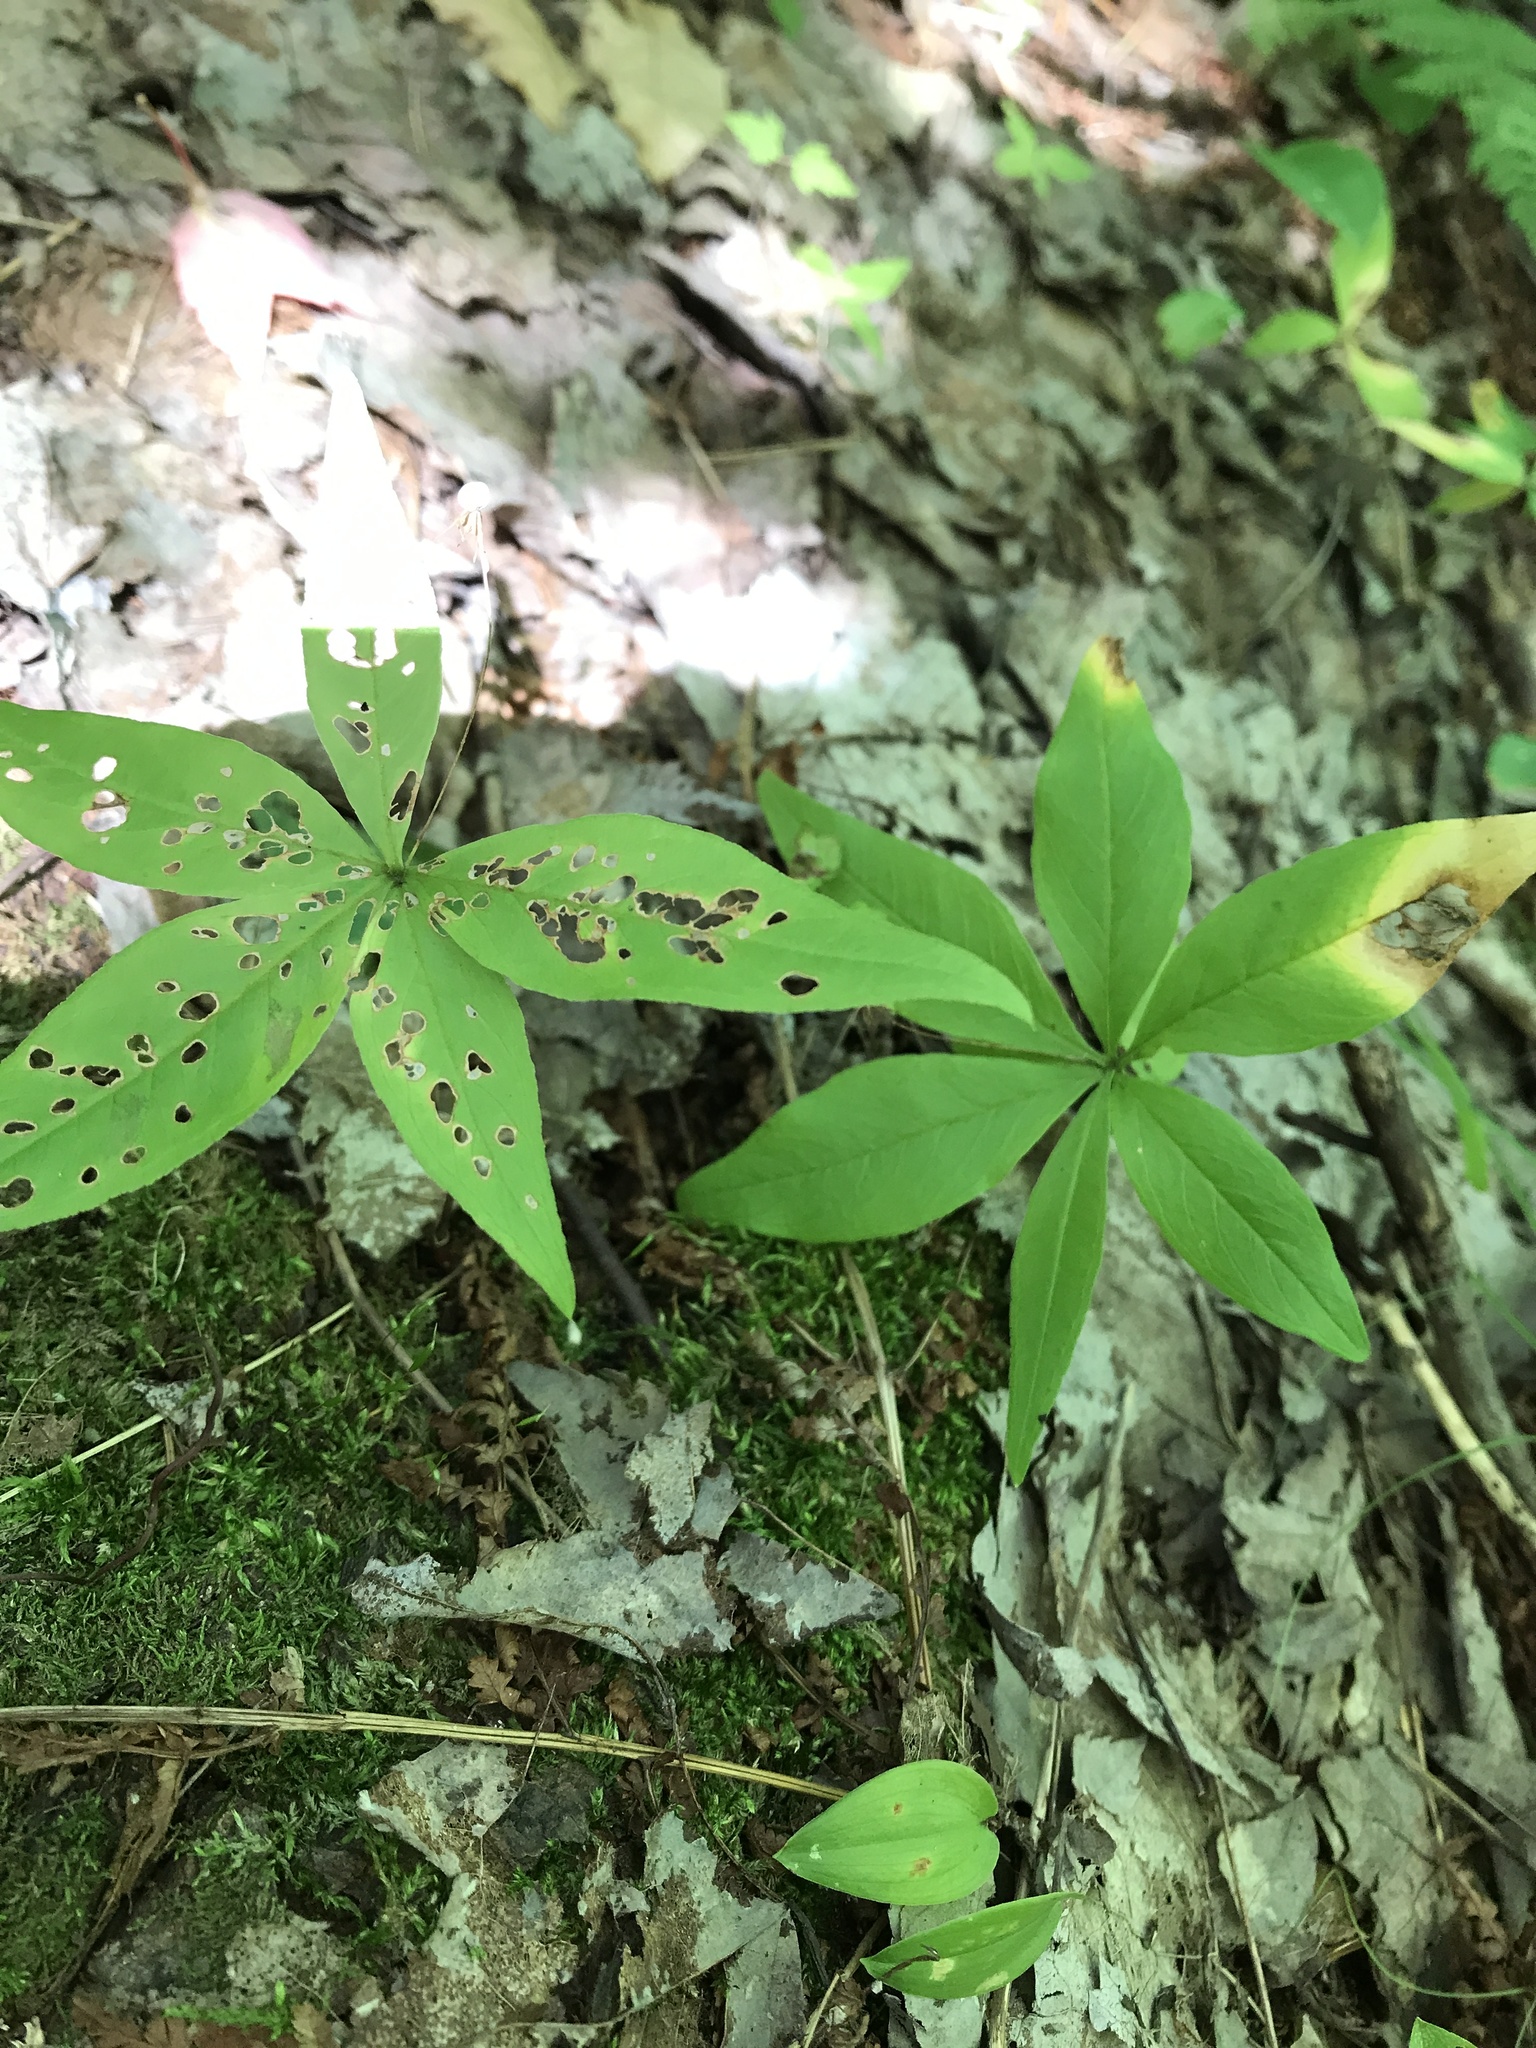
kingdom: Plantae
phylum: Tracheophyta
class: Magnoliopsida
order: Ericales
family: Primulaceae
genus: Lysimachia
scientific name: Lysimachia borealis
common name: American starflower
